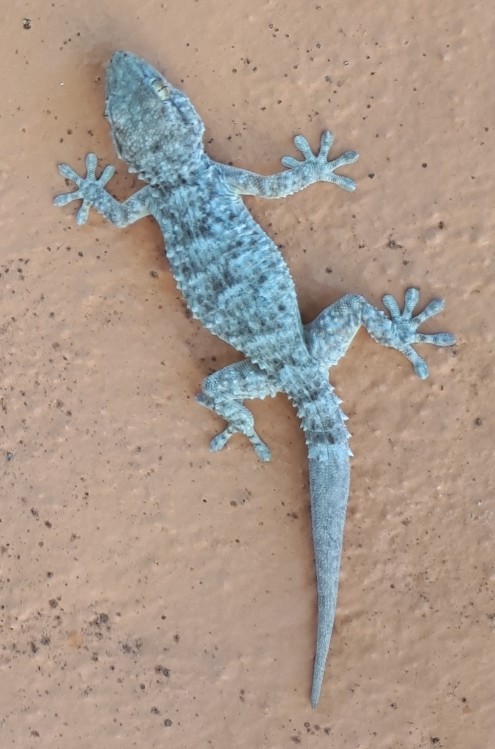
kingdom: Animalia
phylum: Chordata
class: Squamata
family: Phyllodactylidae
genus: Tarentola
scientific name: Tarentola mauritanica
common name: Moorish gecko
